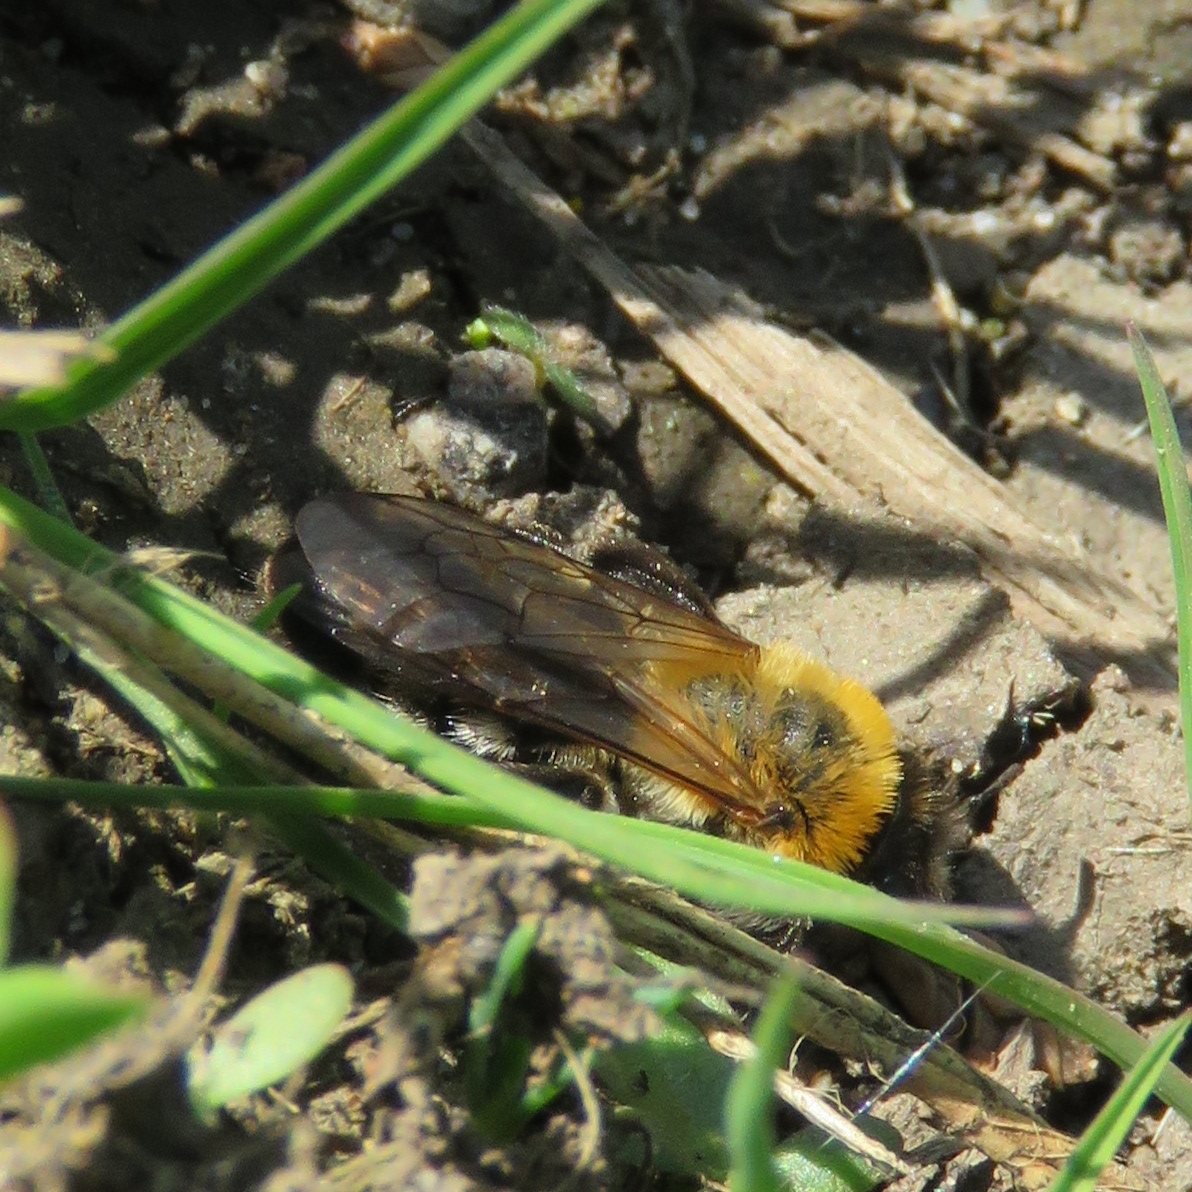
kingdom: Animalia
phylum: Arthropoda
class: Insecta
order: Hymenoptera
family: Andrenidae
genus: Andrena
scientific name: Andrena nitida
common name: Grey-patched mining bee
